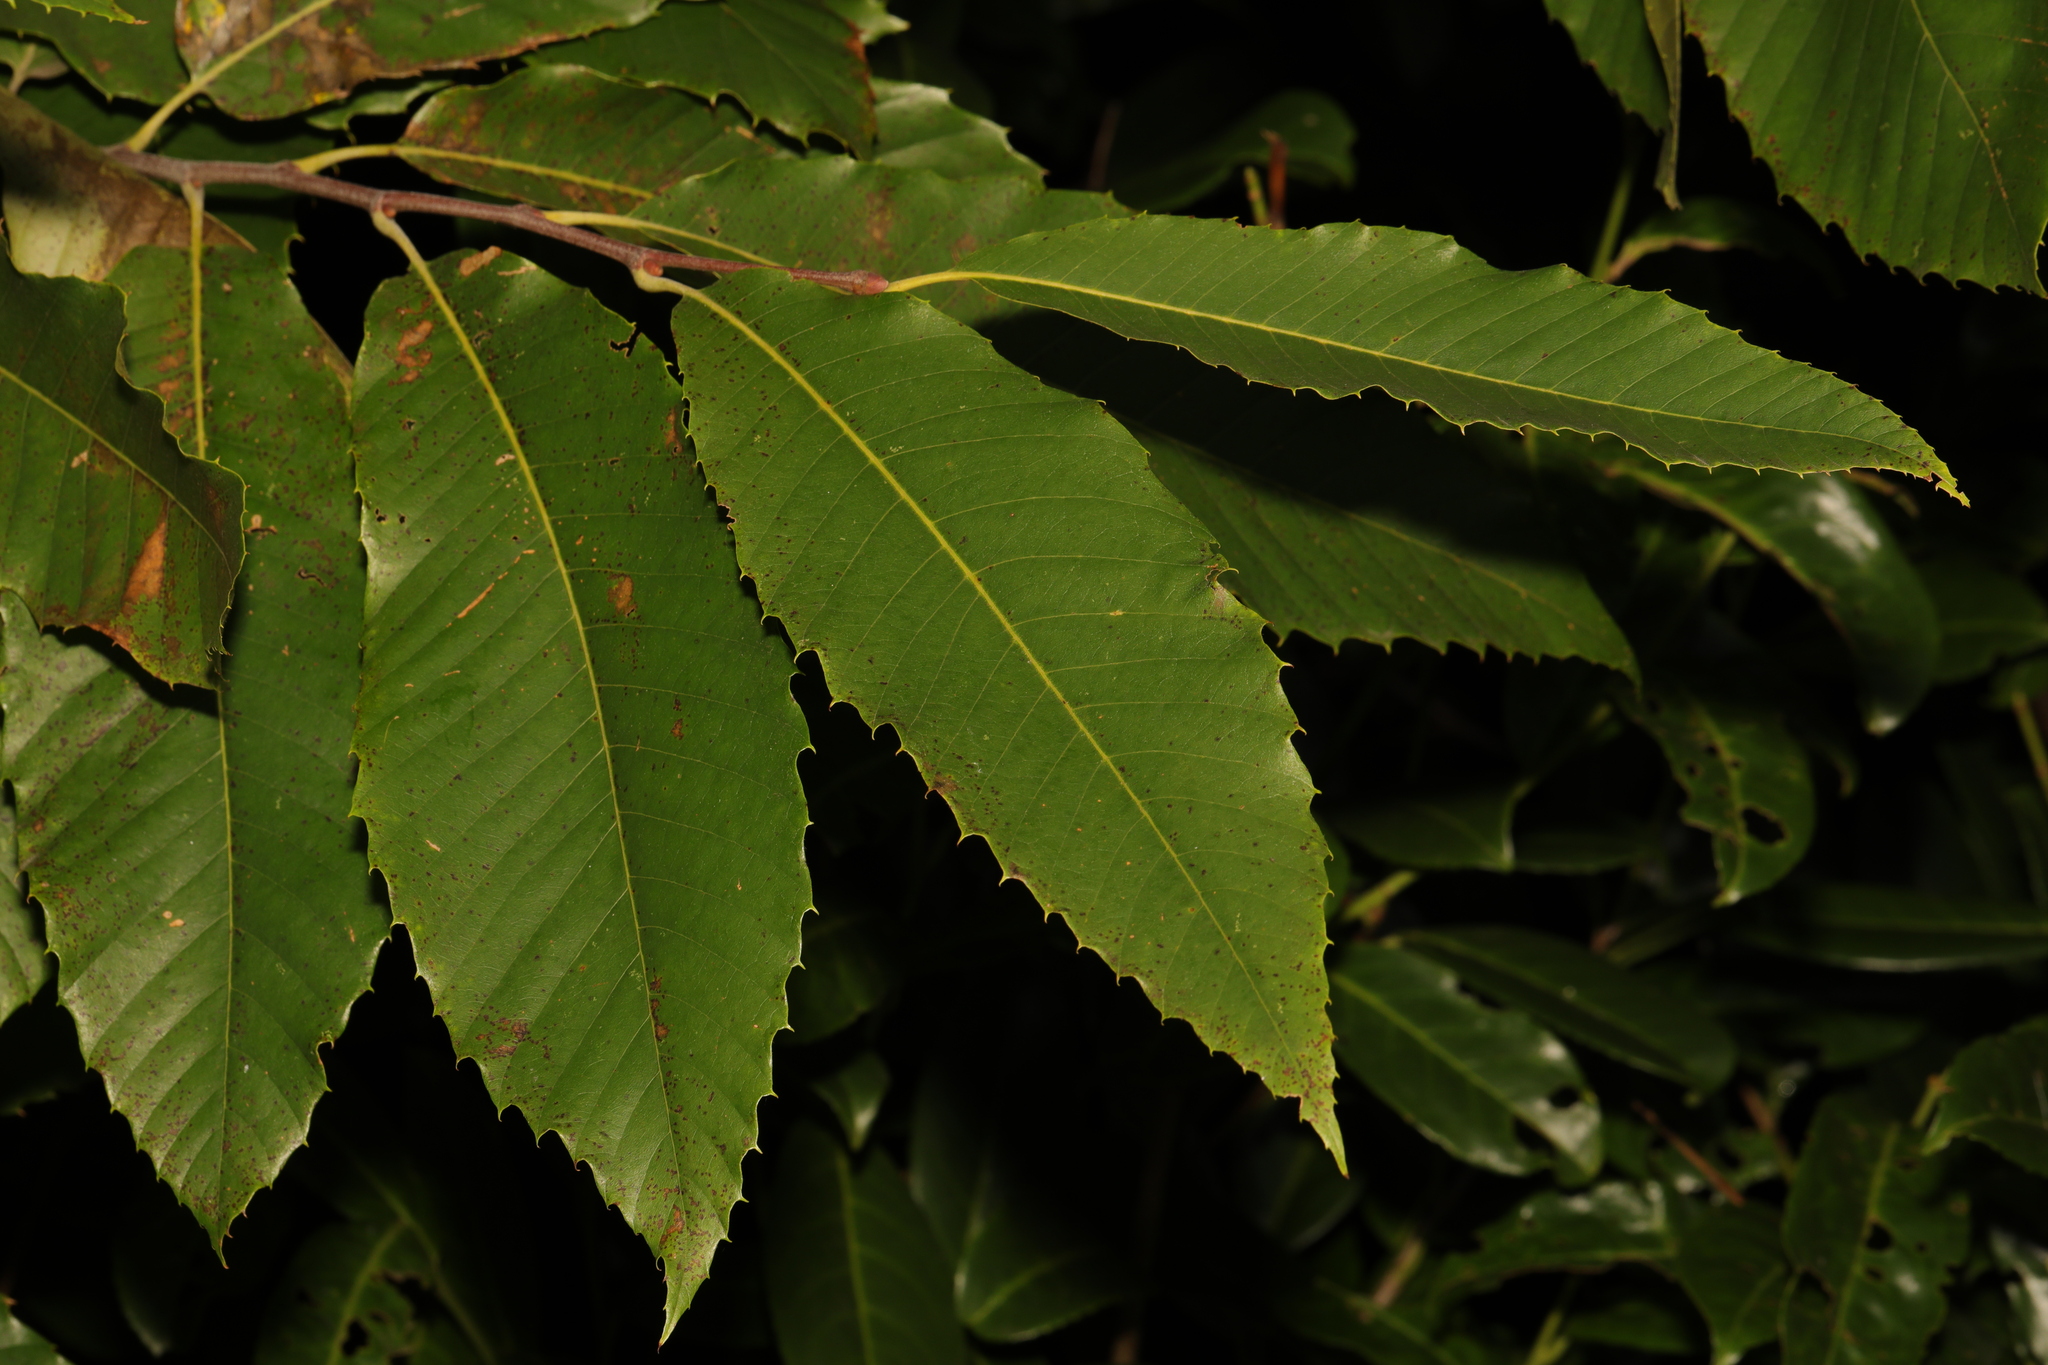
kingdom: Plantae
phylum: Tracheophyta
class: Magnoliopsida
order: Fagales
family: Fagaceae
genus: Castanea
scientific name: Castanea sativa
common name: Sweet chestnut
